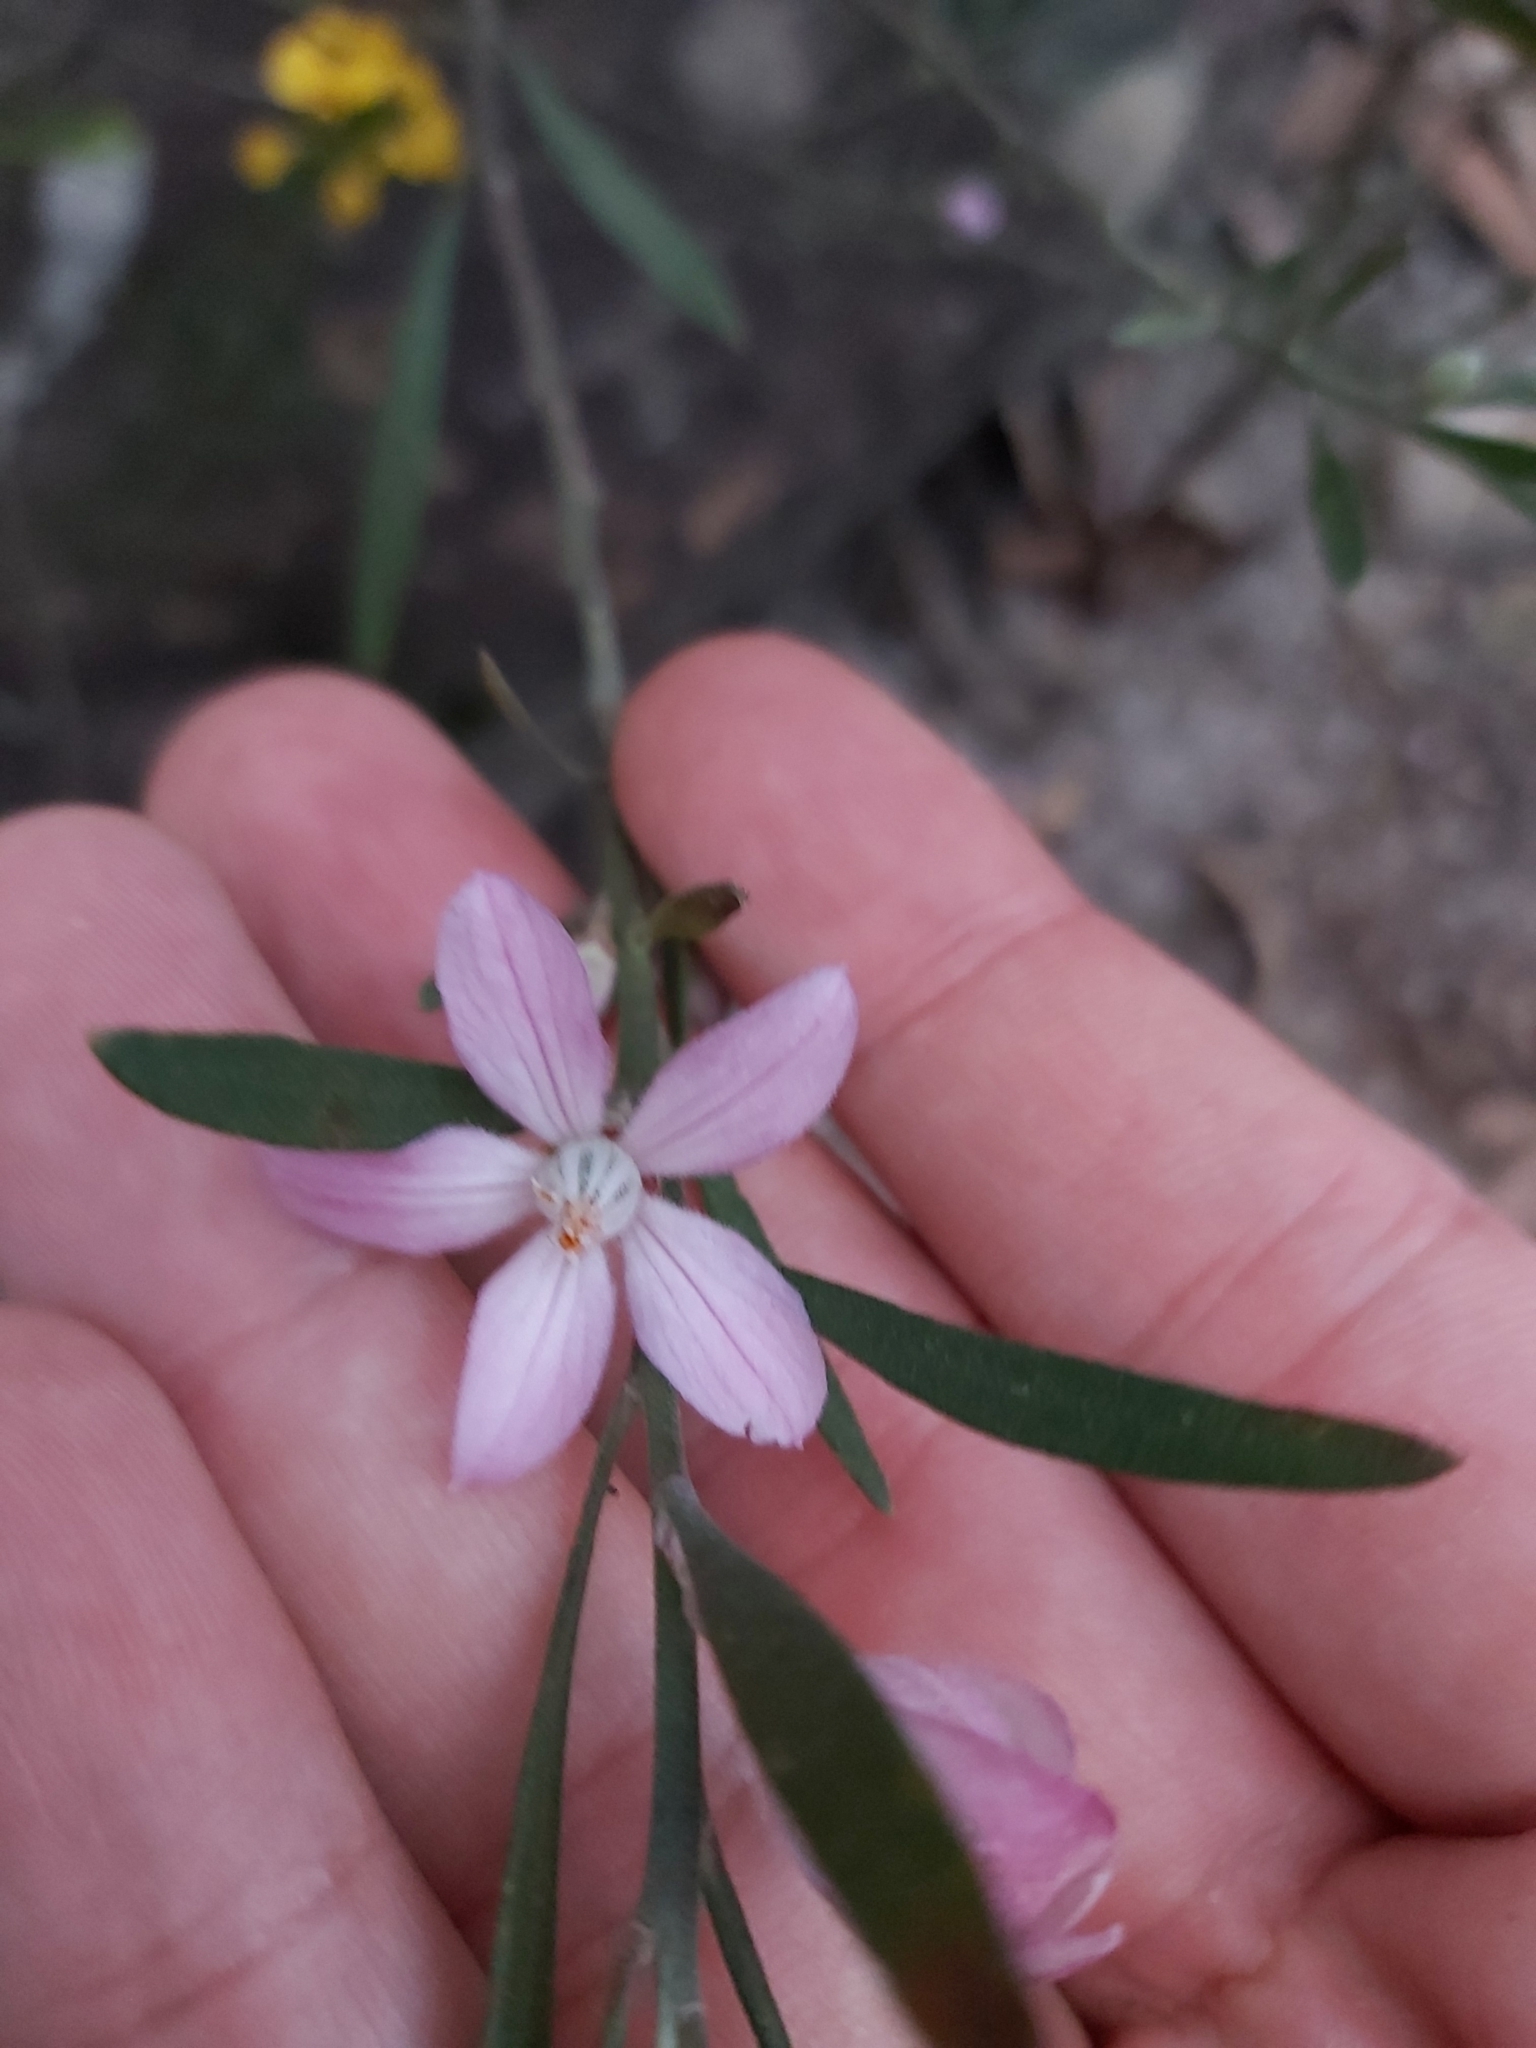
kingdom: Plantae
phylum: Tracheophyta
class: Magnoliopsida
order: Sapindales
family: Rutaceae
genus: Eriostemon
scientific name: Eriostemon australasius
